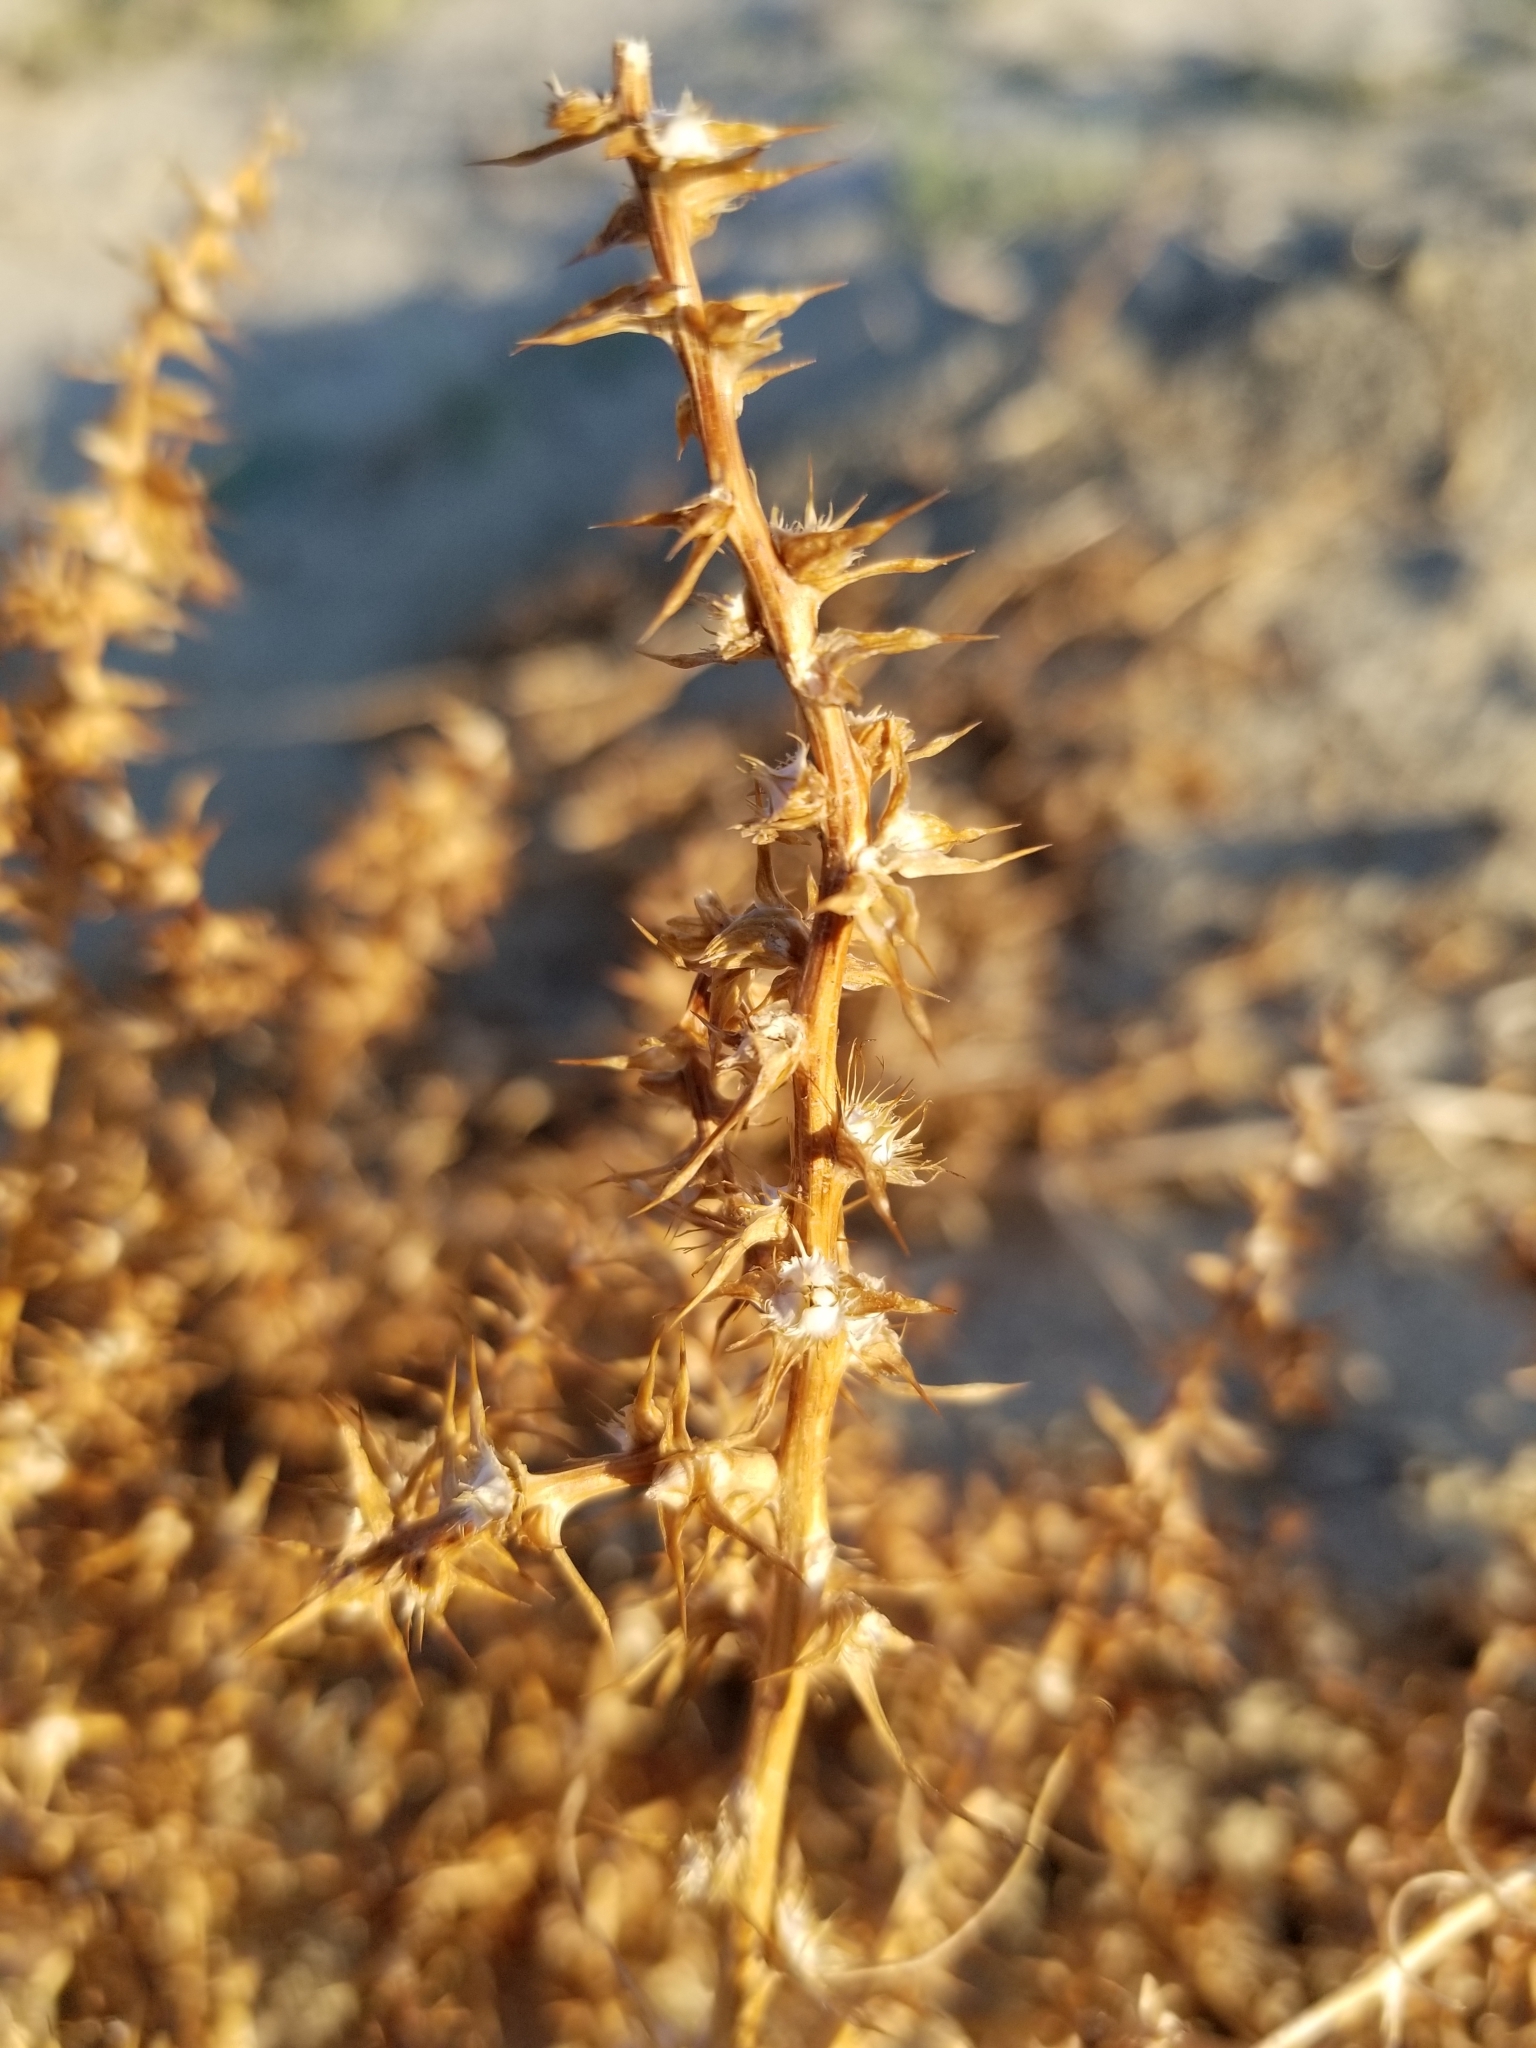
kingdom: Plantae
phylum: Tracheophyta
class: Magnoliopsida
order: Caryophyllales
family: Amaranthaceae
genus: Salsola
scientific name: Salsola tragus
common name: Prickly russian thistle
